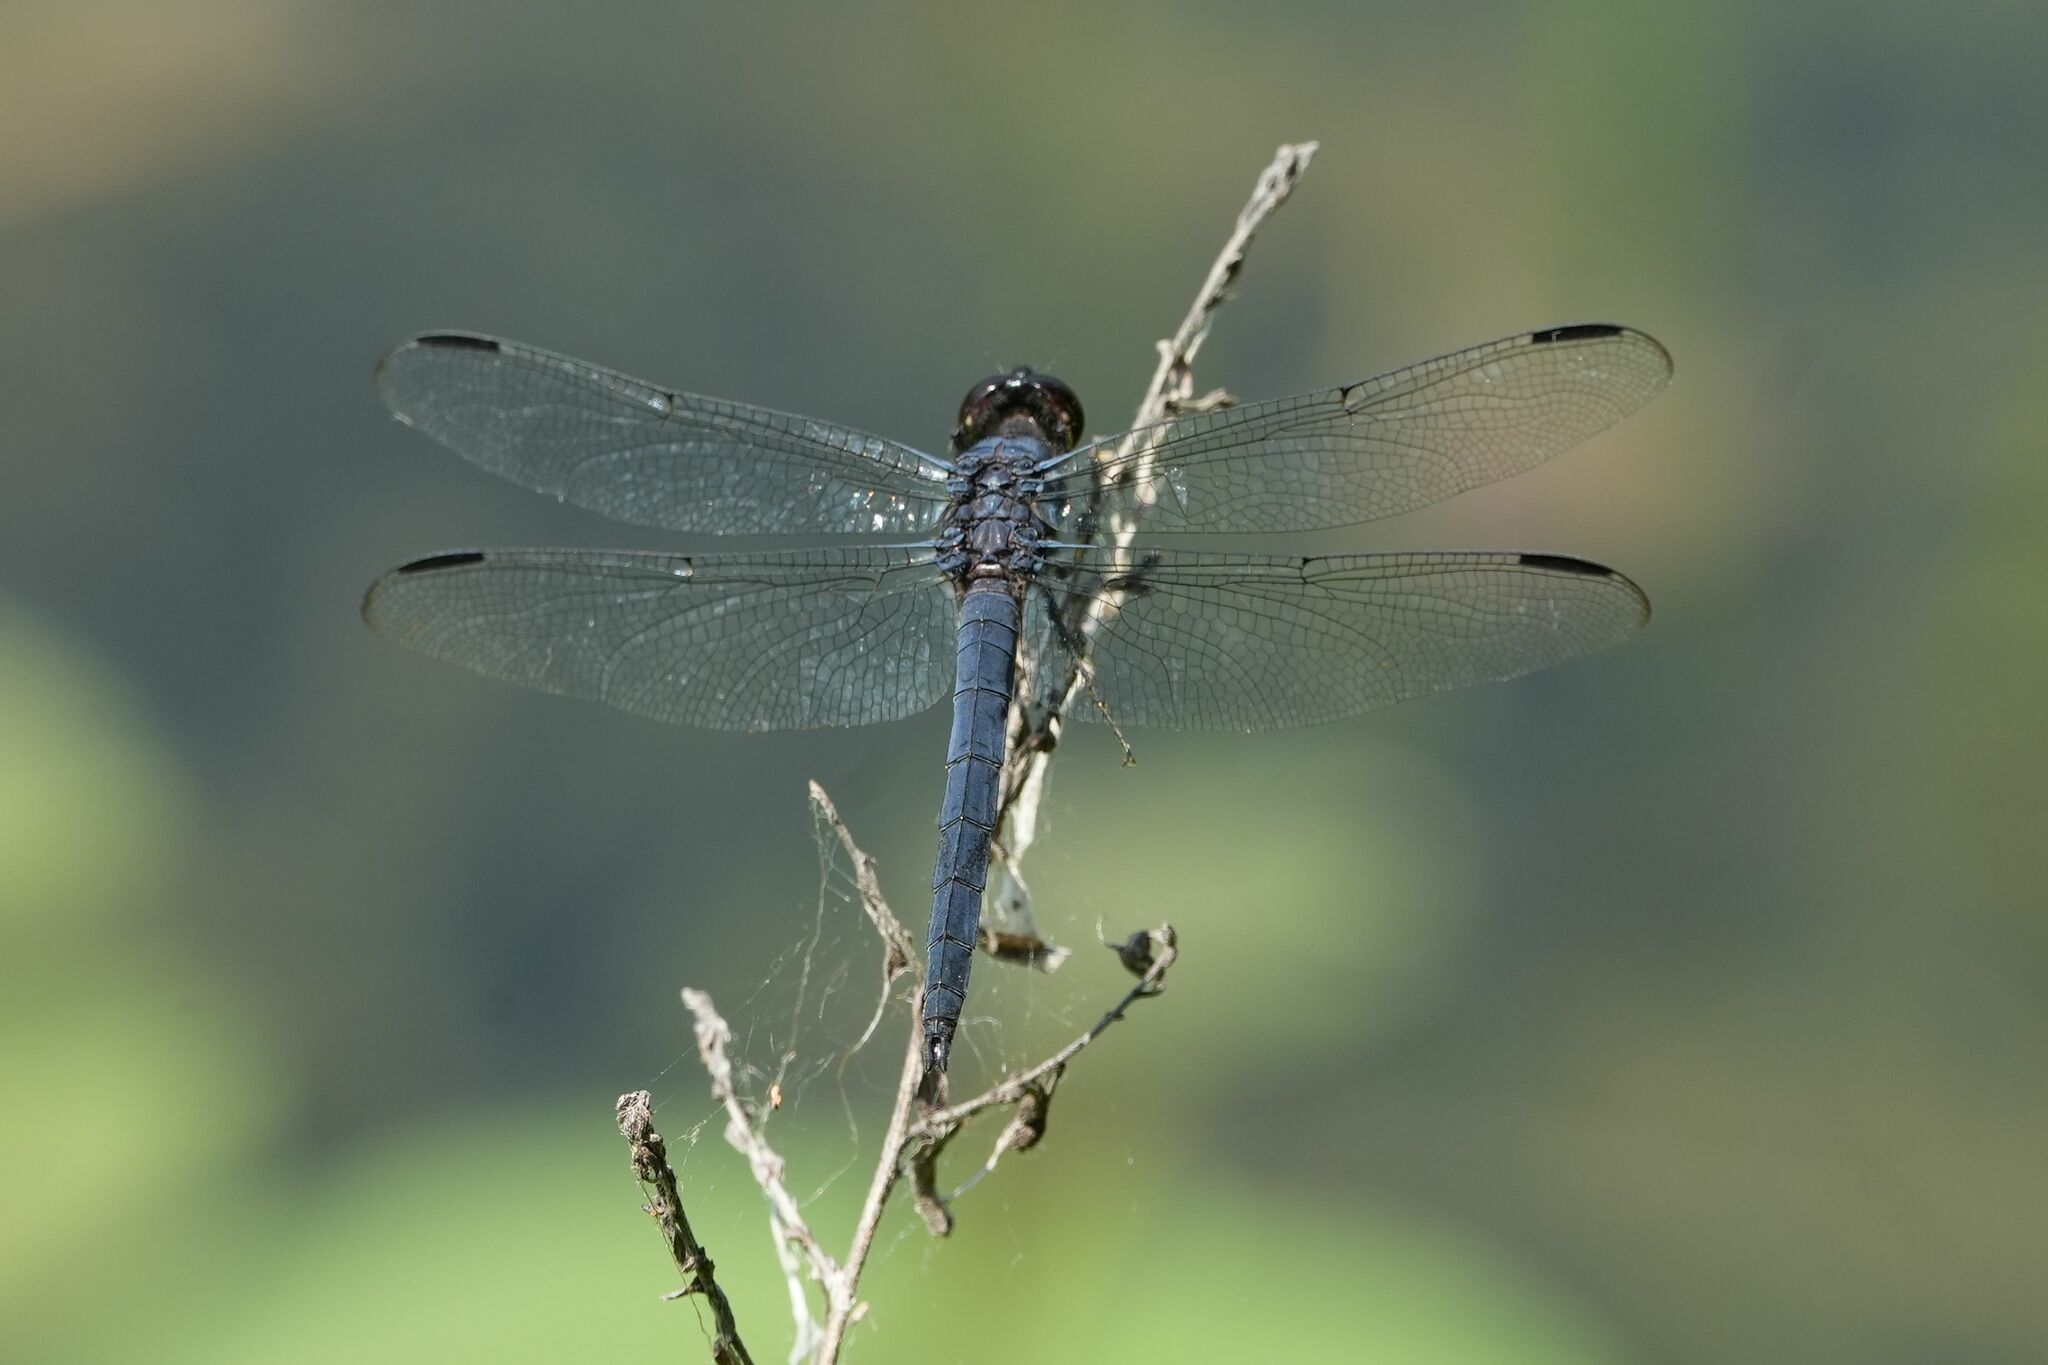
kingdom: Animalia
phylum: Arthropoda
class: Insecta
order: Odonata
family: Libellulidae
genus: Libellula
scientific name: Libellula incesta
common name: Slaty skimmer
